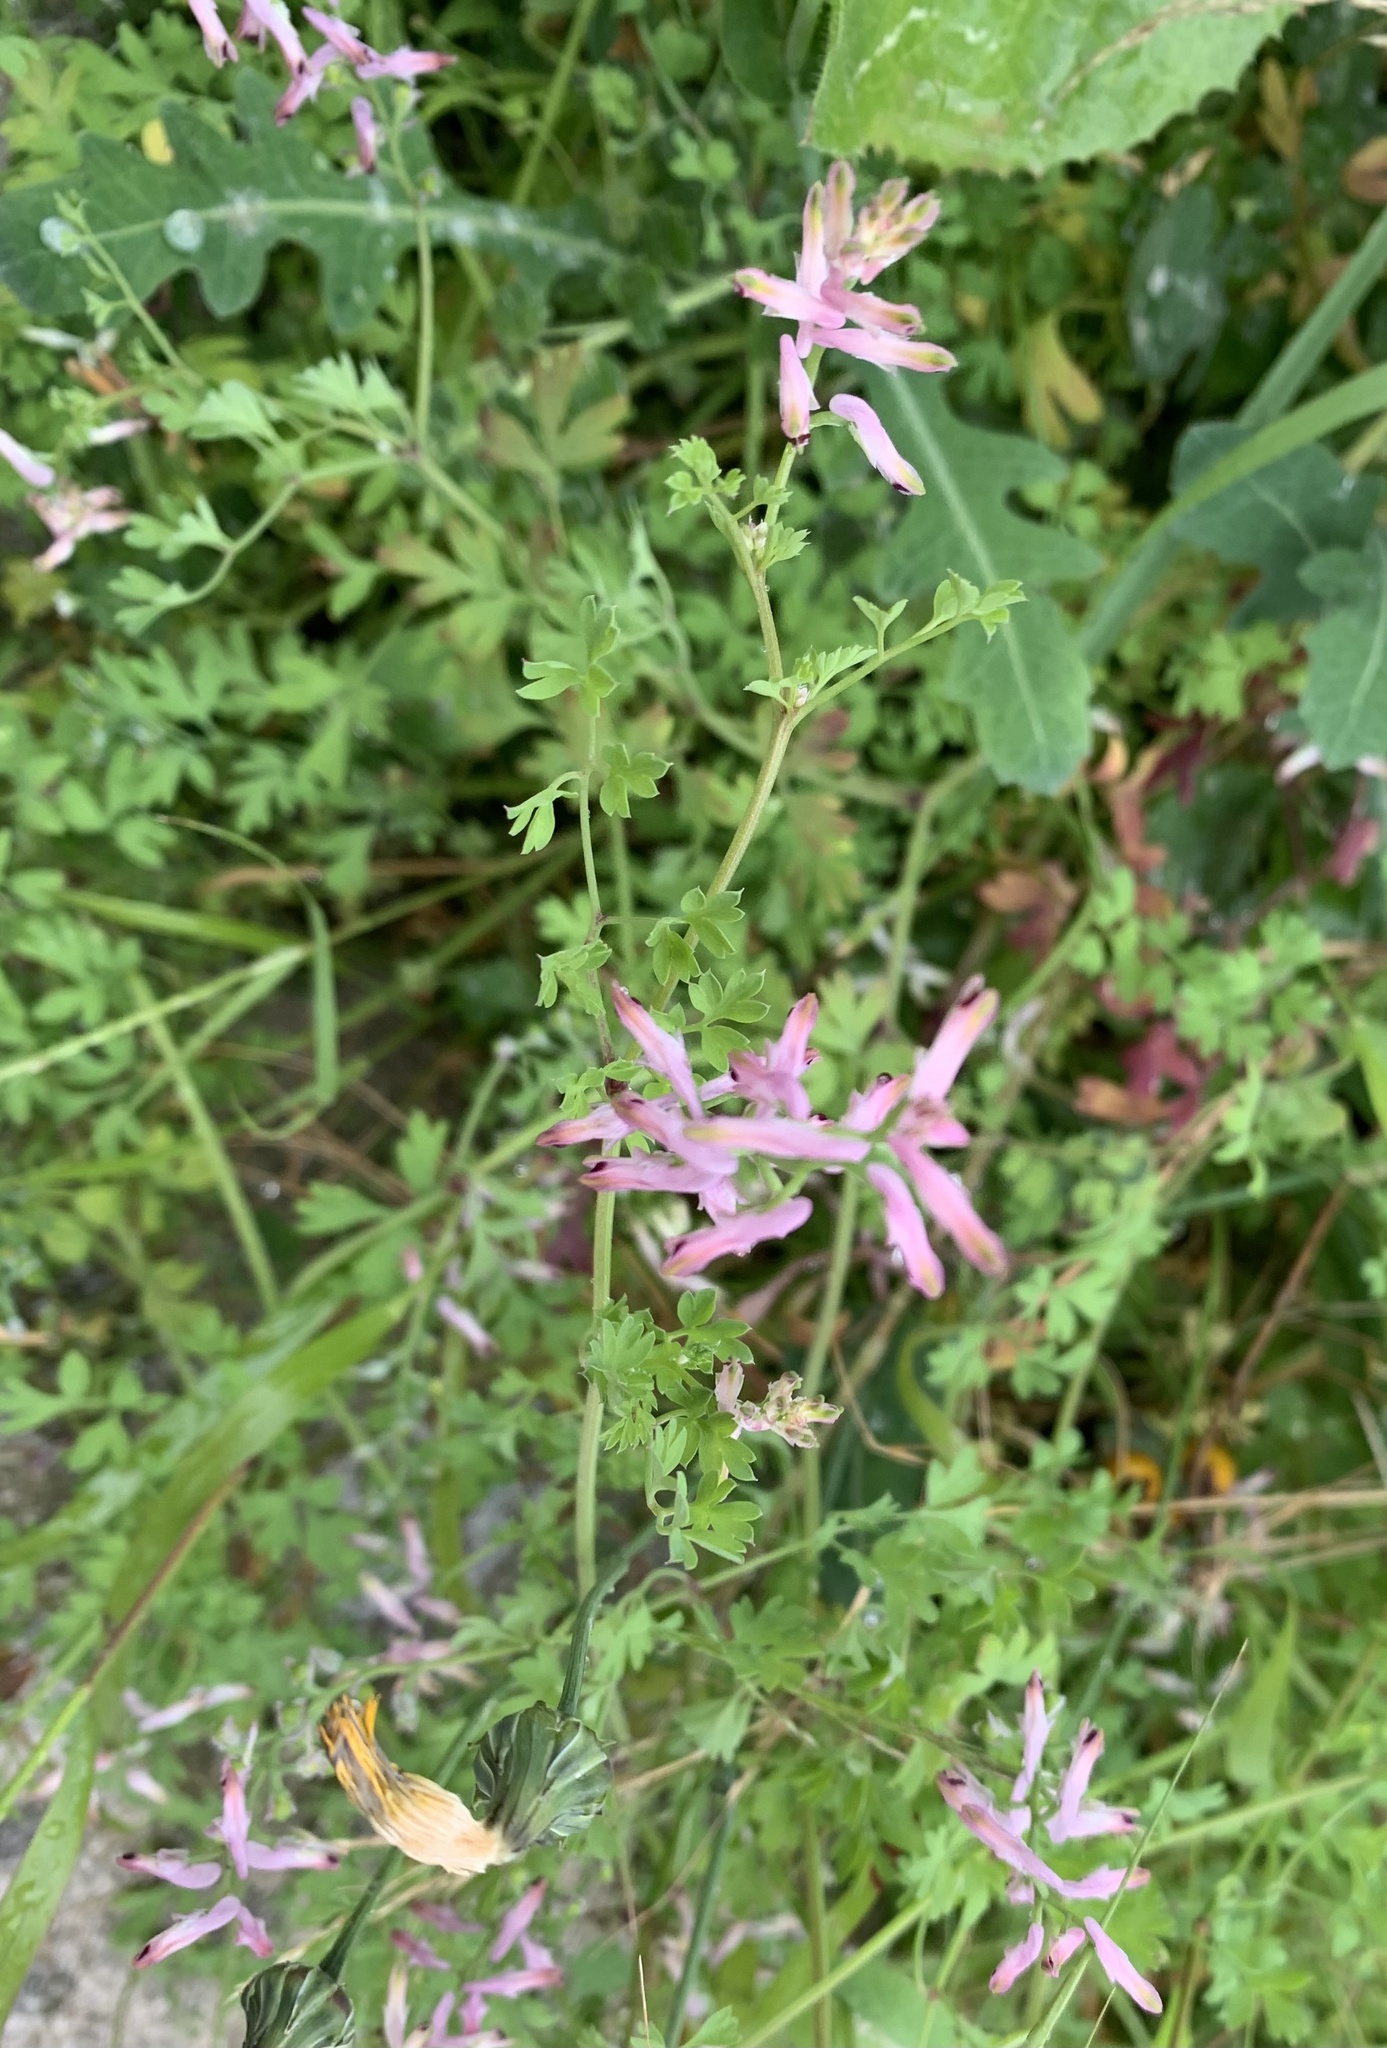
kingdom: Plantae
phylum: Tracheophyta
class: Magnoliopsida
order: Ranunculales
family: Papaveraceae
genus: Fumaria
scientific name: Fumaria
